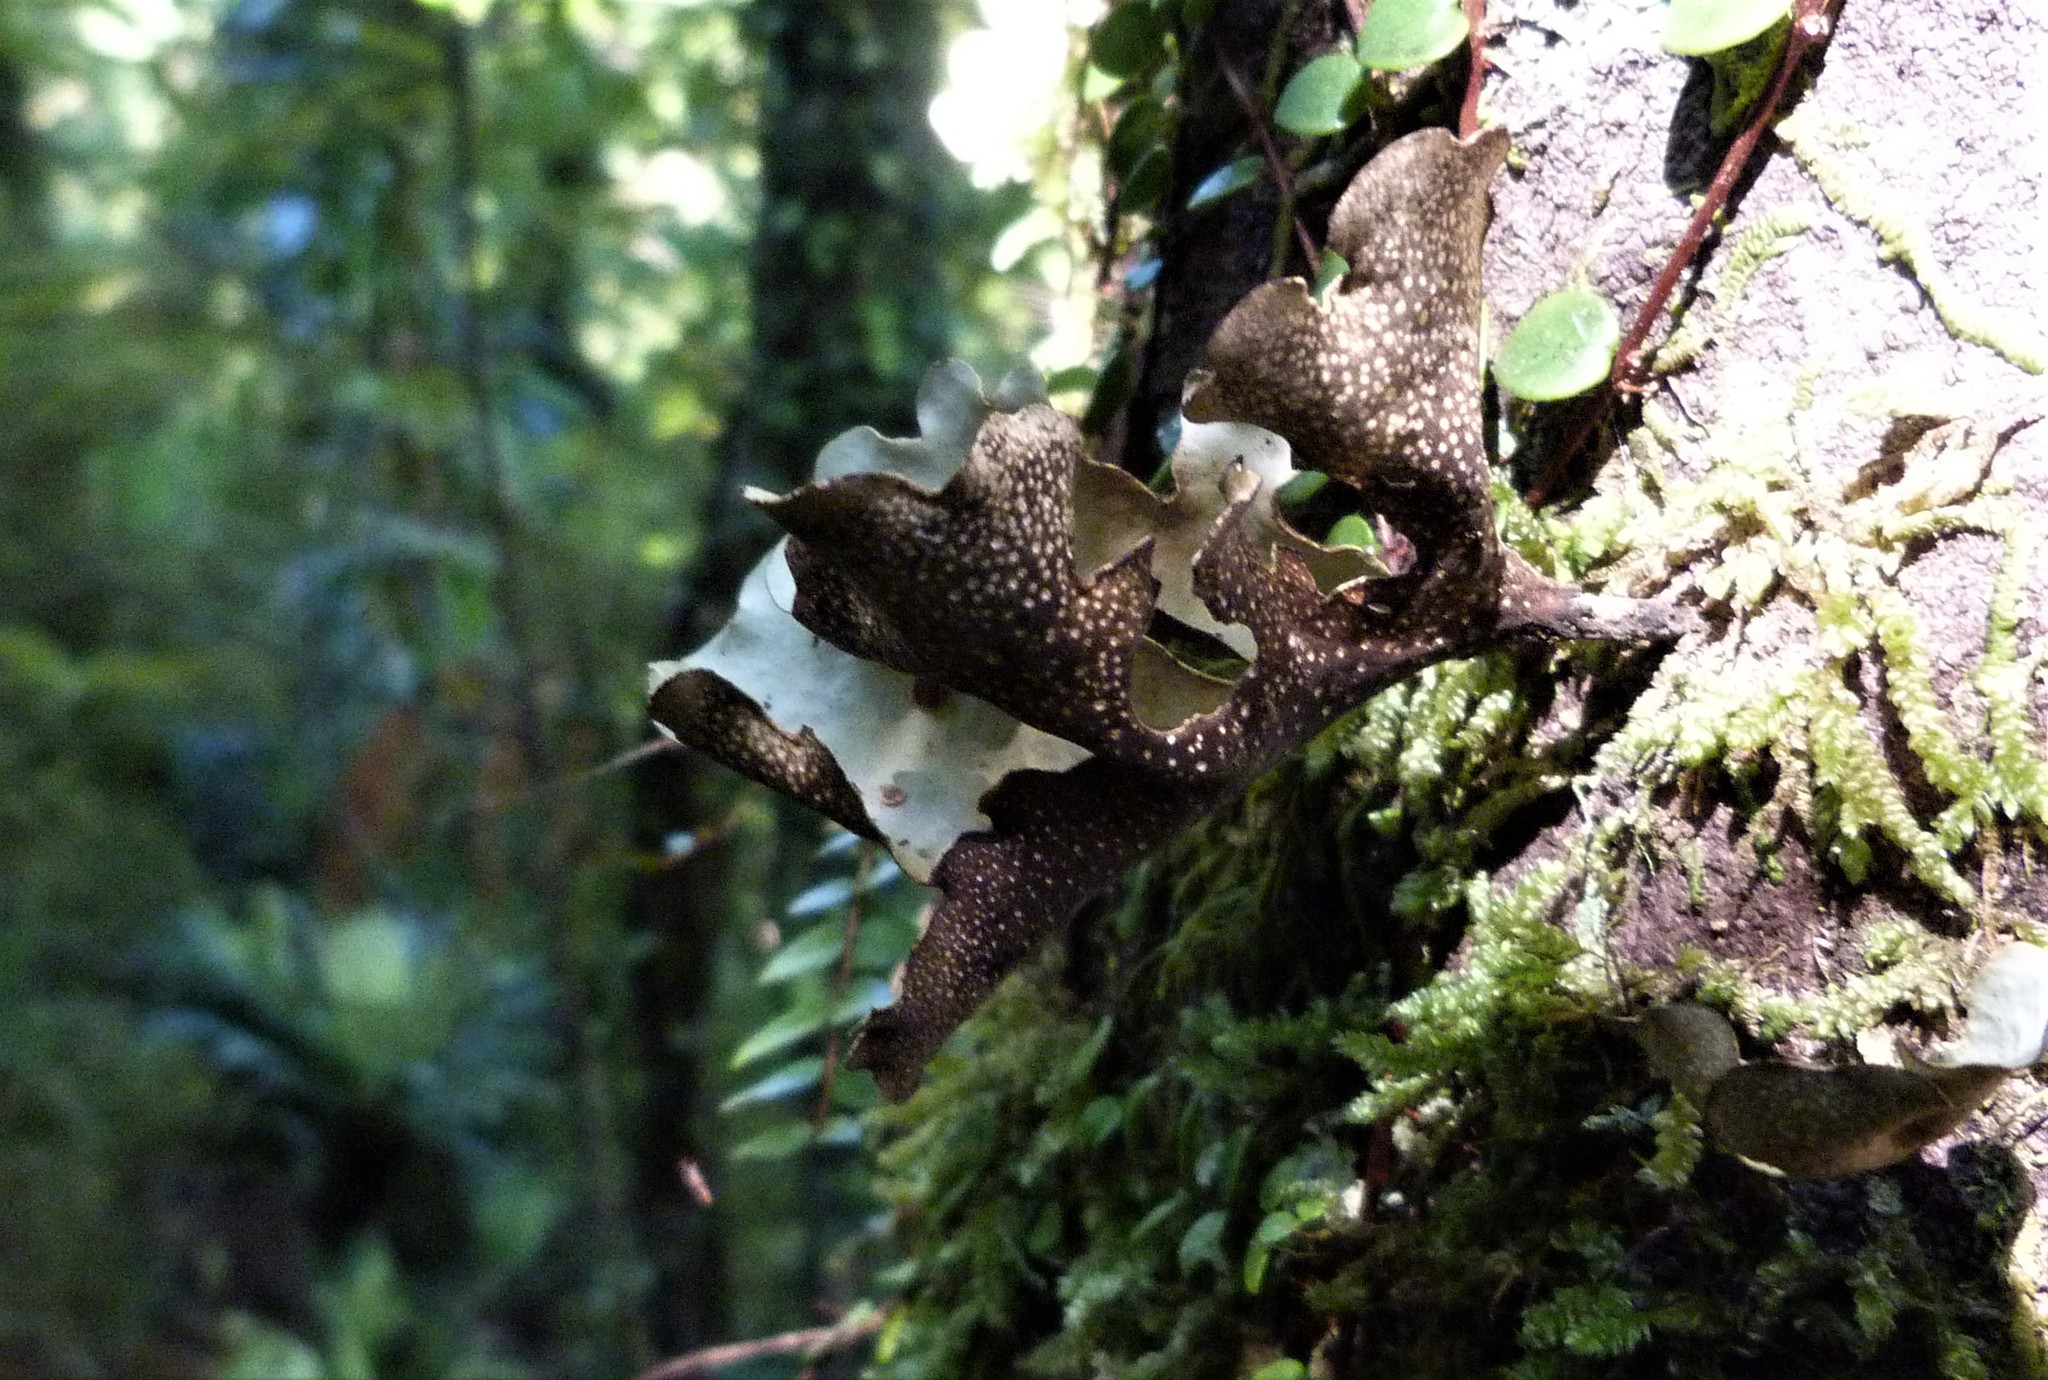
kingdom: Fungi
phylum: Ascomycota
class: Lecanoromycetes
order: Peltigerales
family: Lobariaceae
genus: Sticta
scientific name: Sticta latifrons
